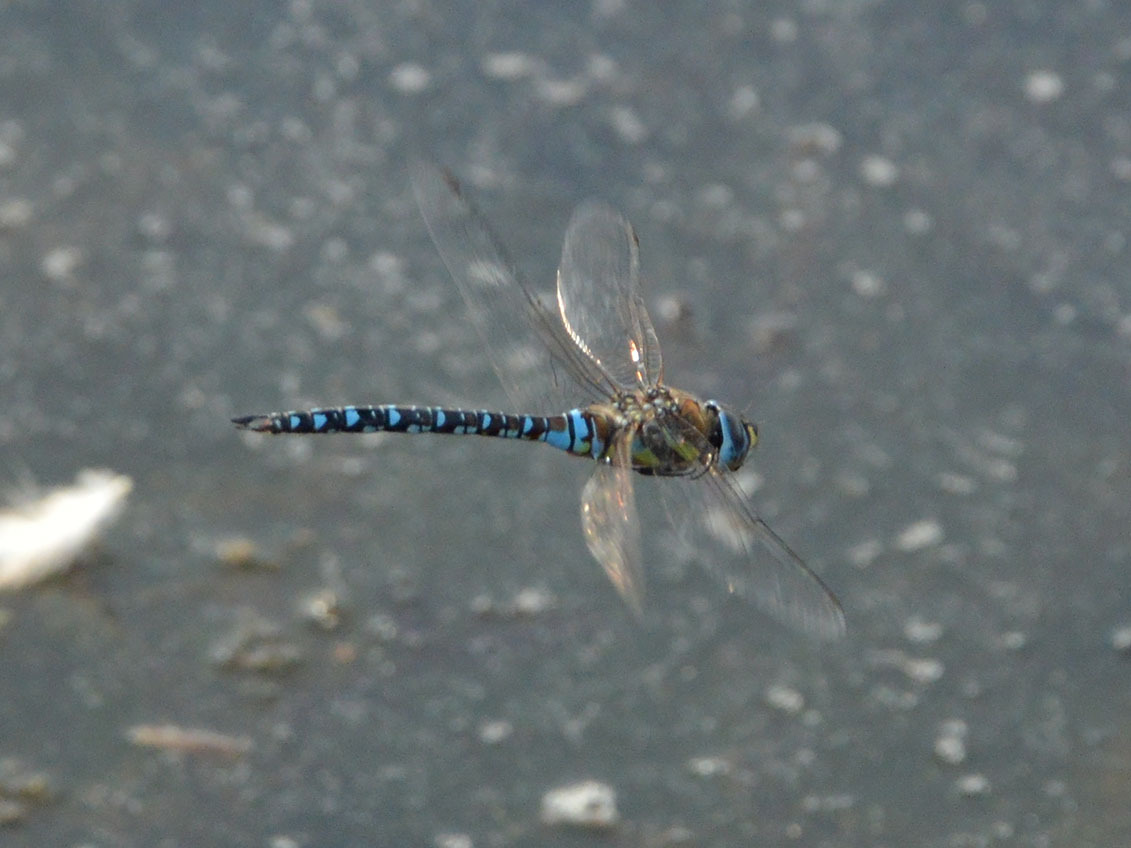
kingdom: Animalia
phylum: Arthropoda
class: Insecta
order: Odonata
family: Aeshnidae
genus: Aeshna
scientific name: Aeshna mixta
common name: Migrant hawker
